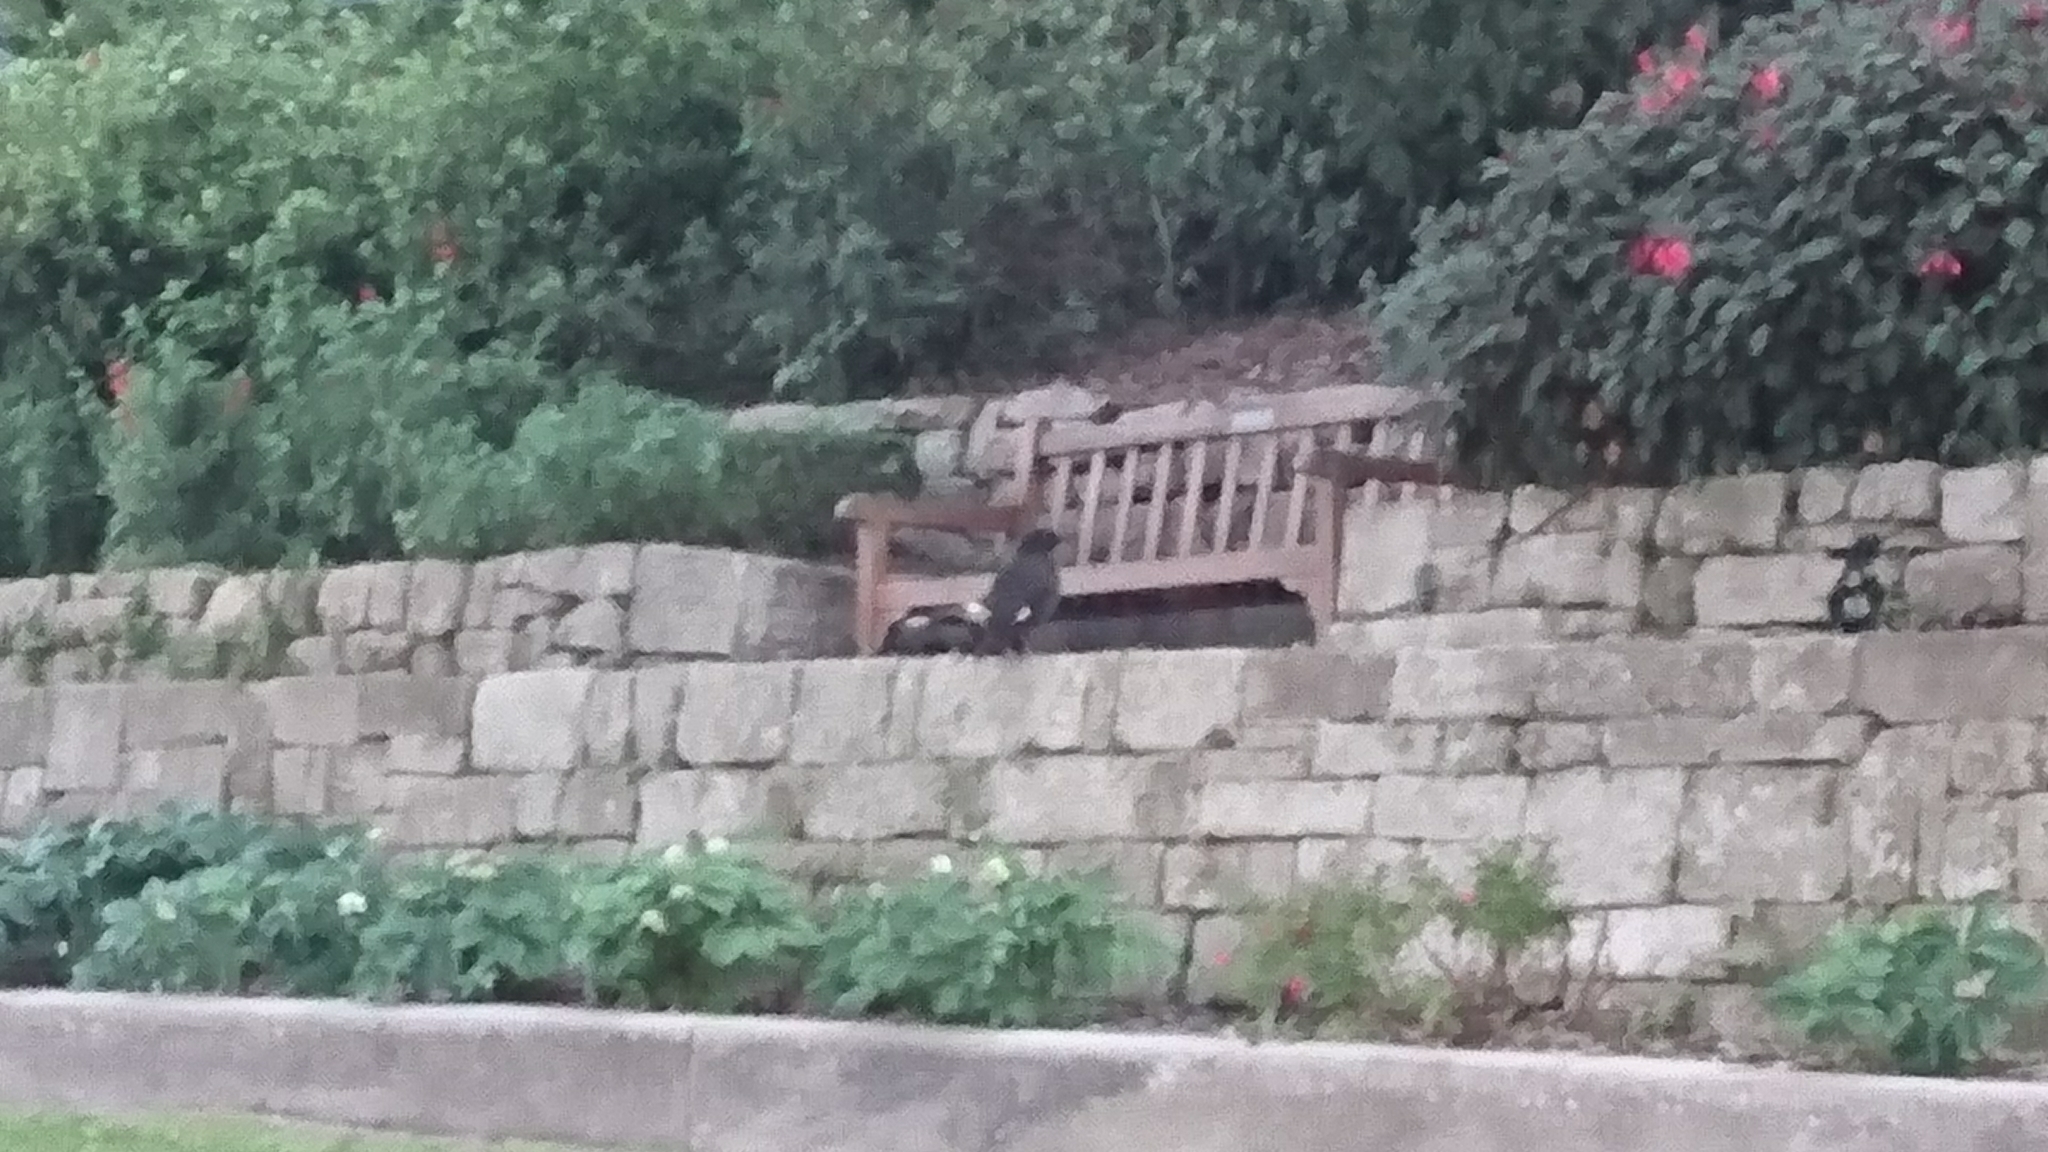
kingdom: Animalia
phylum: Chordata
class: Aves
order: Passeriformes
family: Cracticidae
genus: Strepera
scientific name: Strepera graculina
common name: Pied currawong
